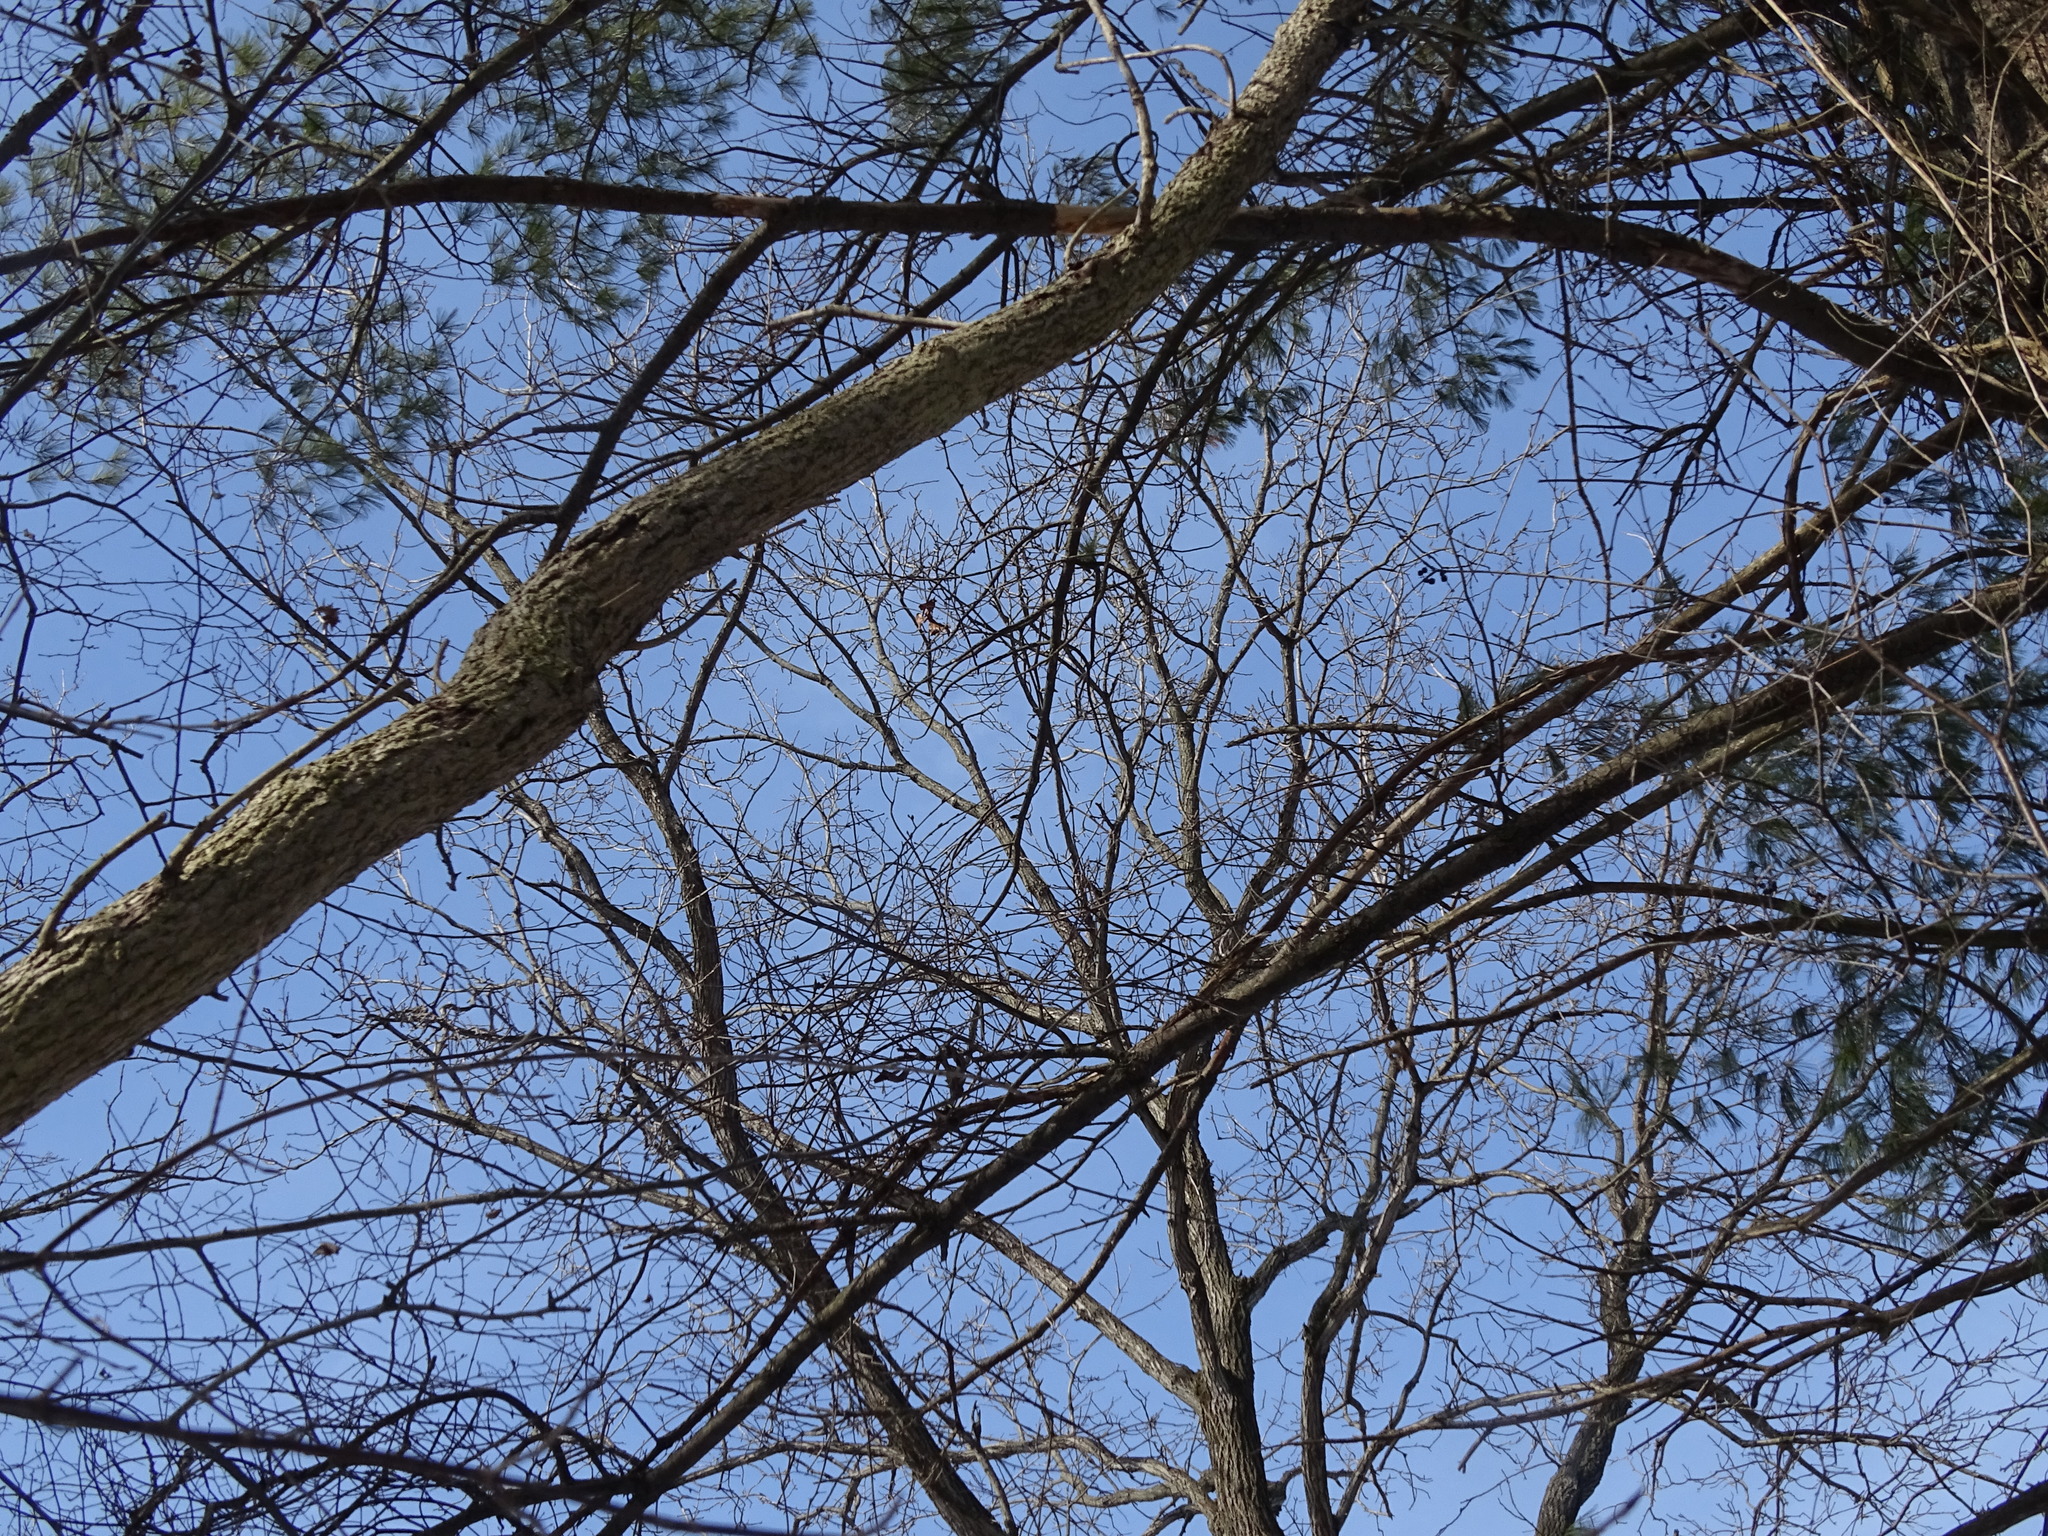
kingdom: Plantae
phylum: Tracheophyta
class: Magnoliopsida
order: Fagales
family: Juglandaceae
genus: Juglans
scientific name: Juglans nigra
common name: Black walnut
